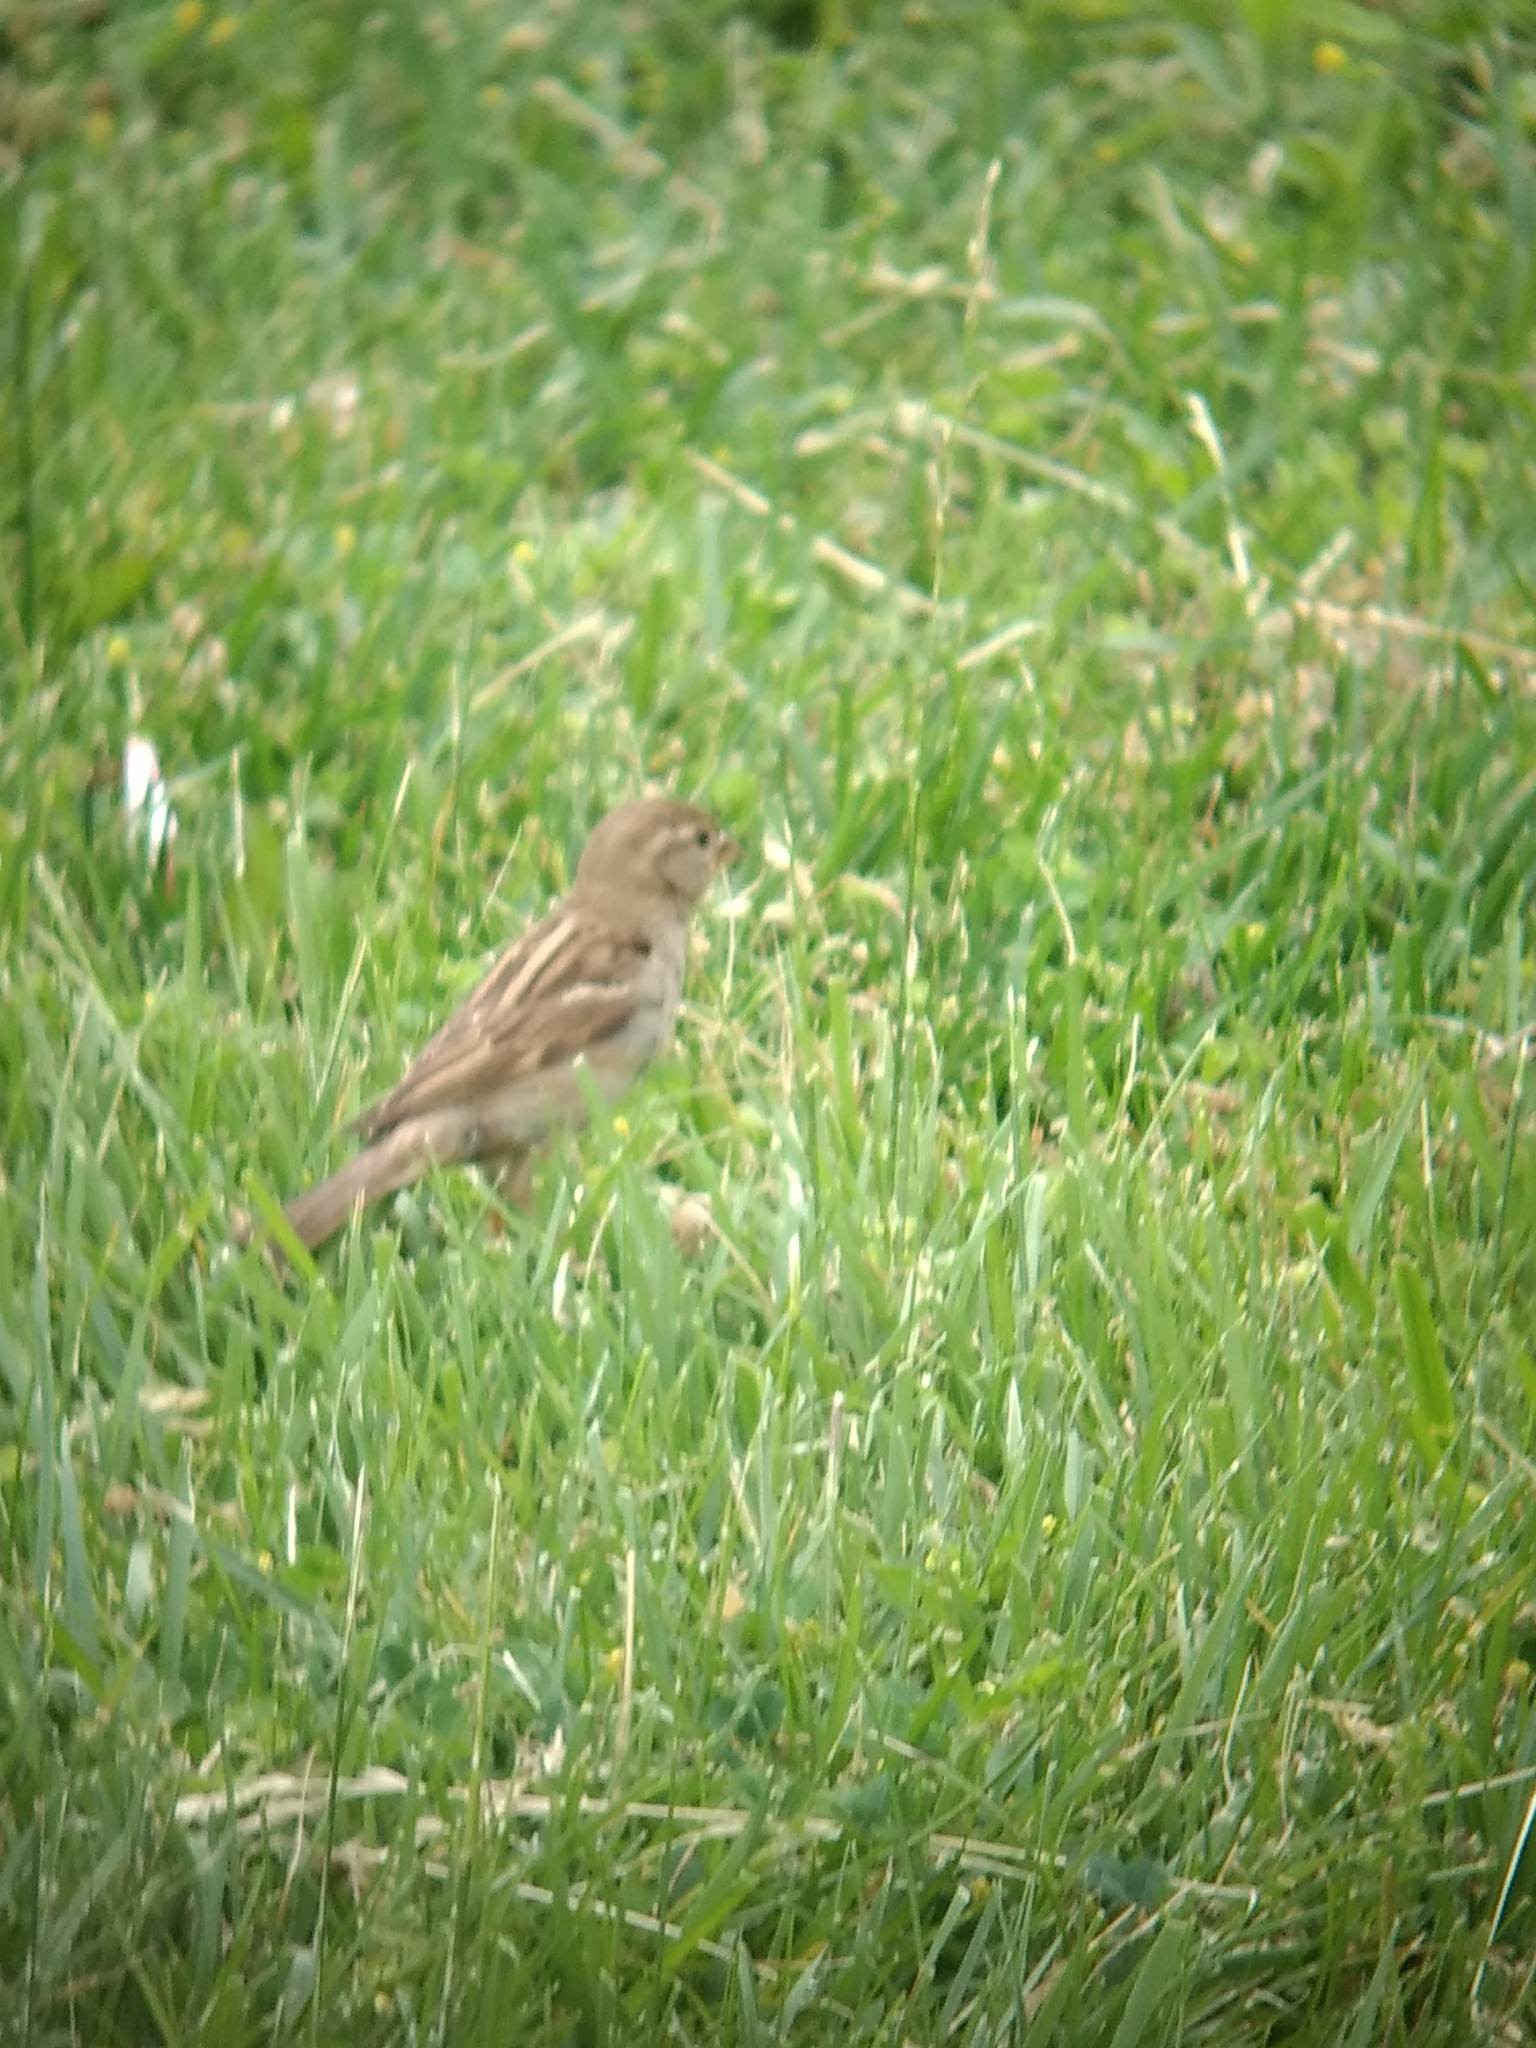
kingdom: Animalia
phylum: Chordata
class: Aves
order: Passeriformes
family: Passeridae
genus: Passer
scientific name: Passer domesticus
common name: House sparrow
